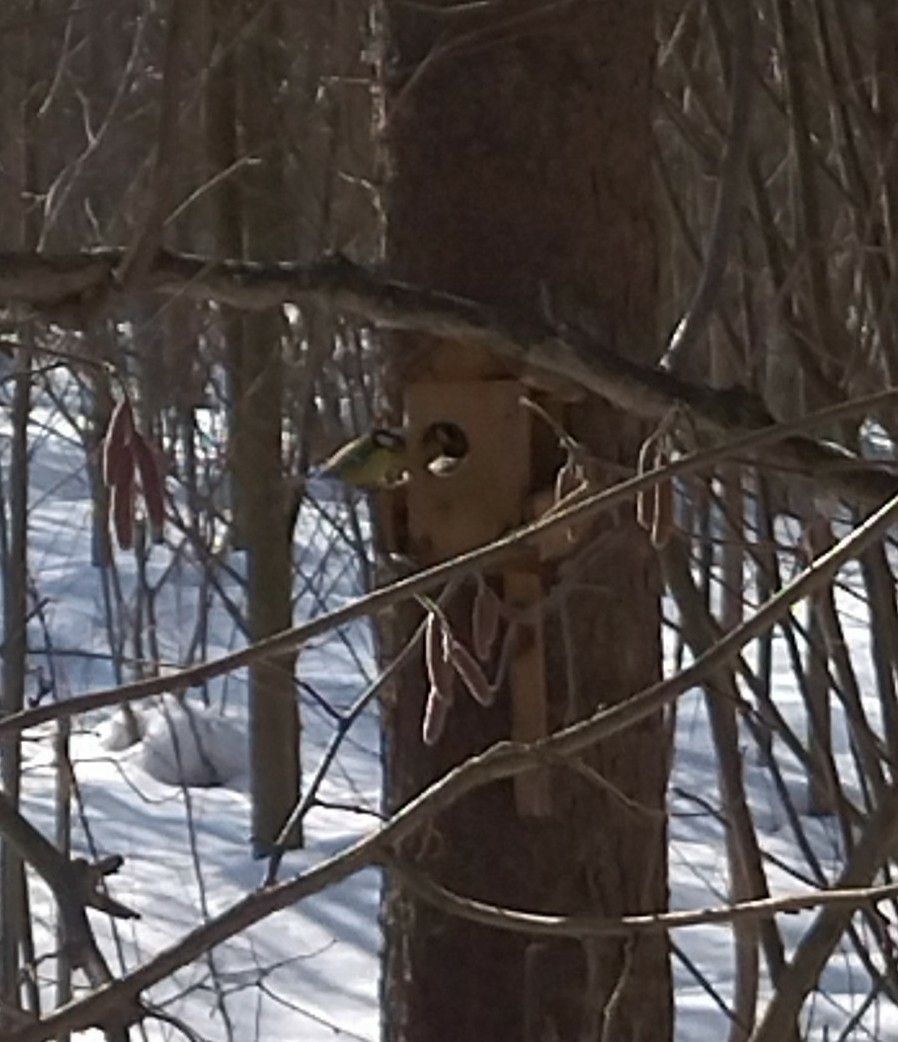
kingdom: Animalia
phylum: Chordata
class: Aves
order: Passeriformes
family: Paridae
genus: Parus
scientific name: Parus major
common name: Great tit
